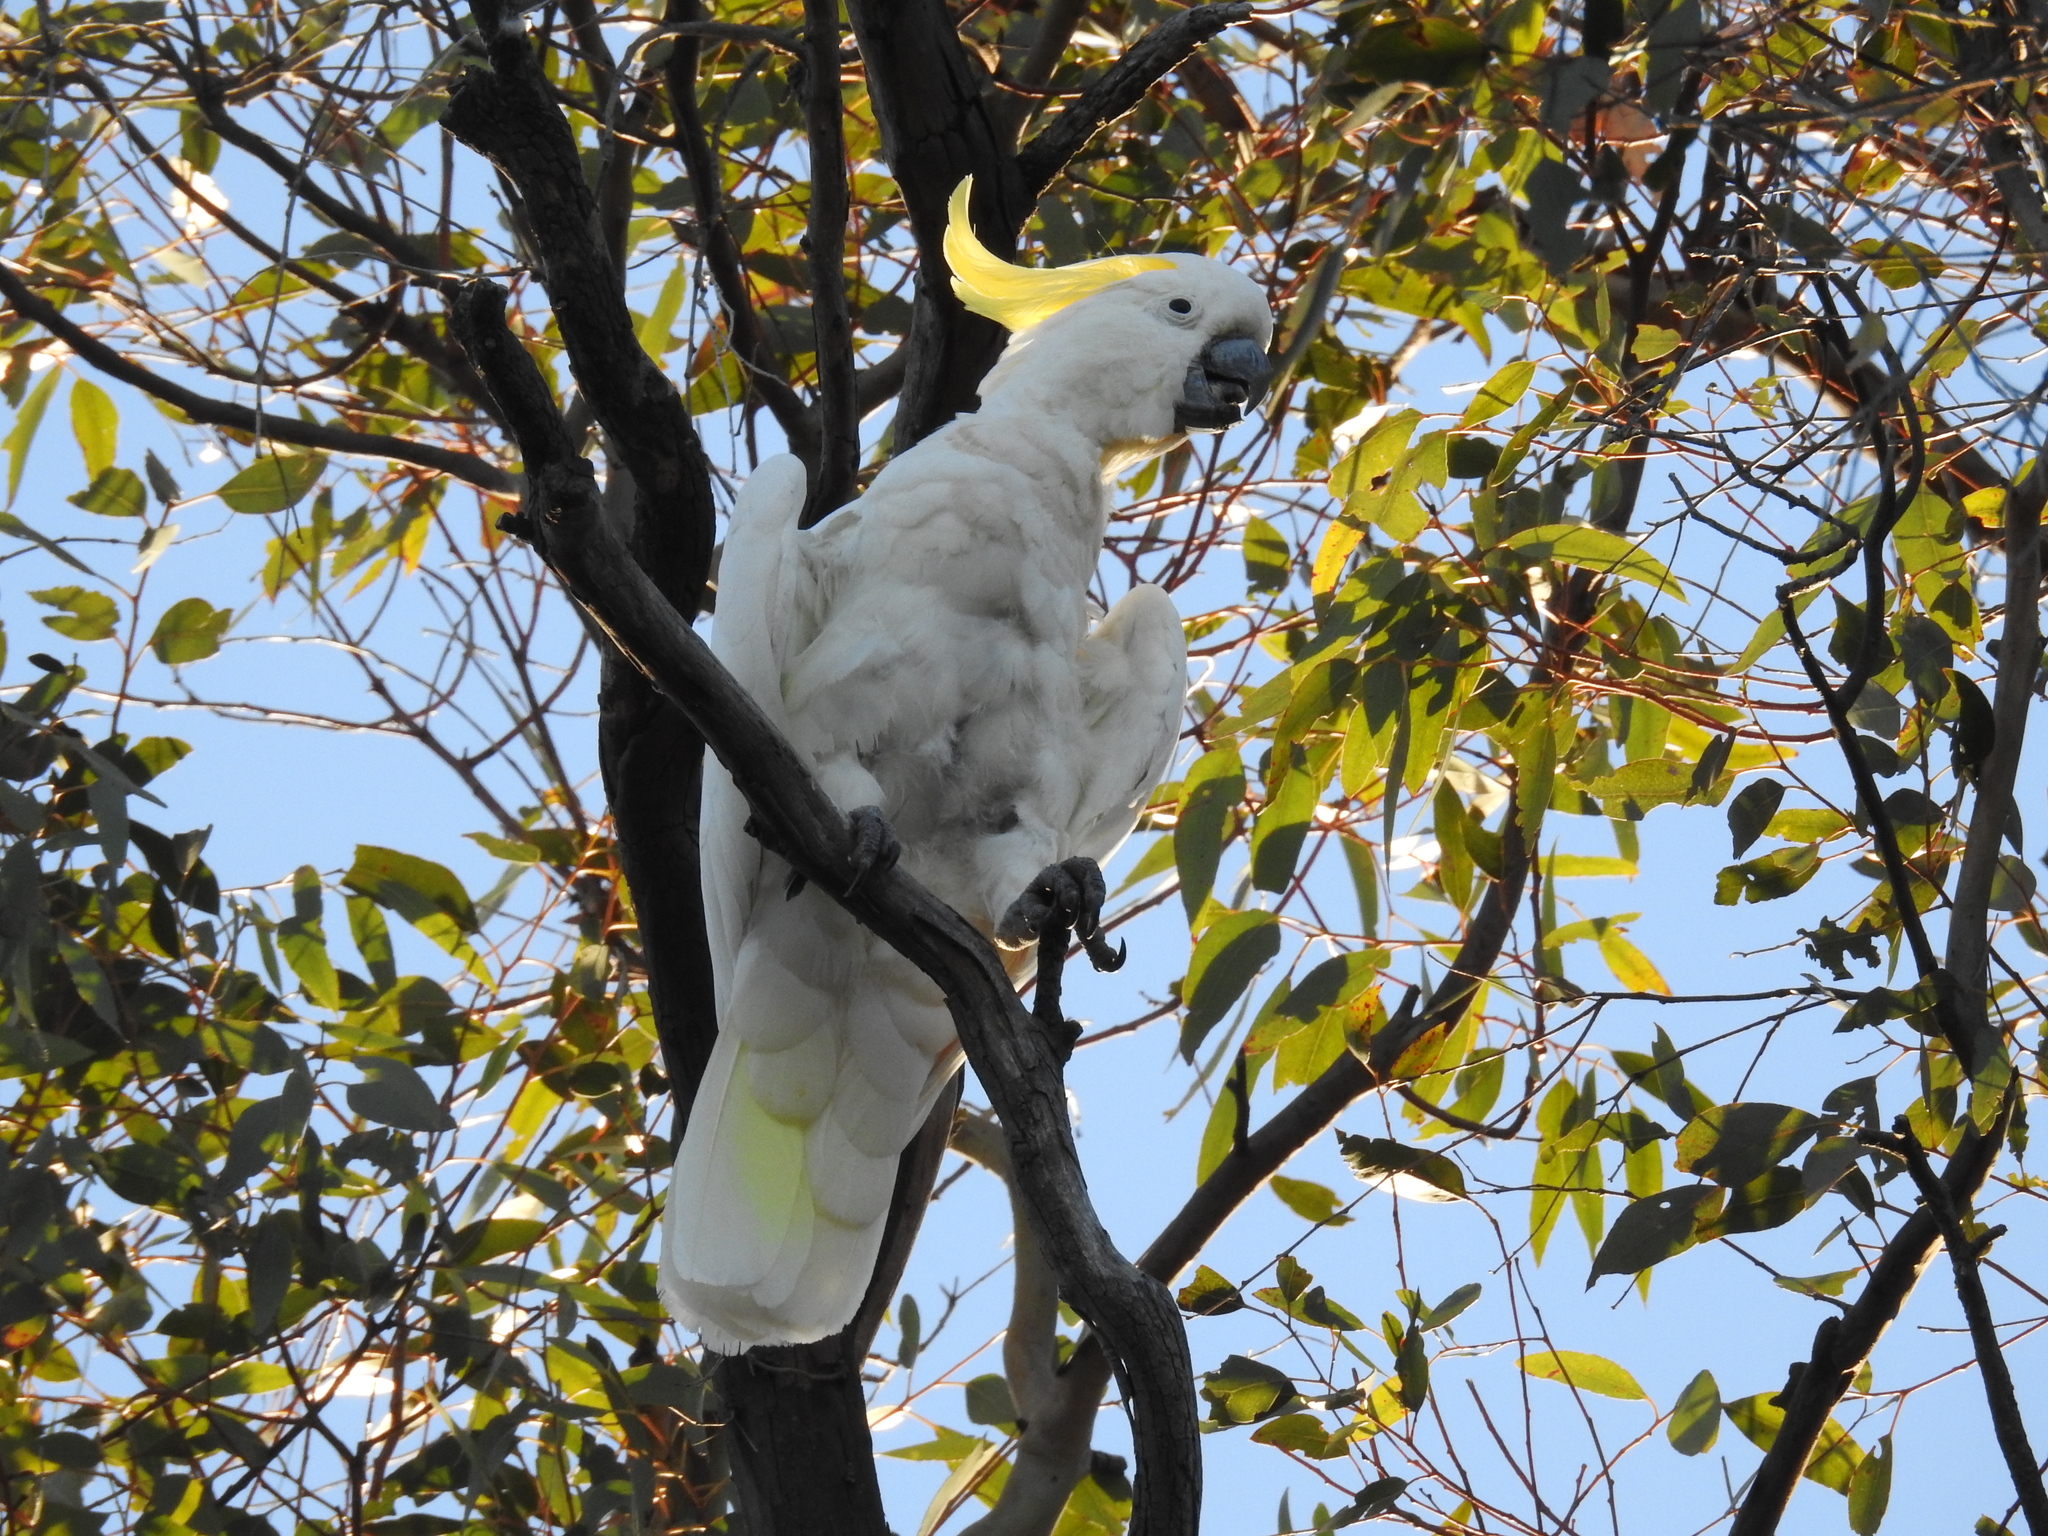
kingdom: Animalia
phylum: Chordata
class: Aves
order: Psittaciformes
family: Psittacidae
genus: Cacatua
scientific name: Cacatua galerita
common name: Sulphur-crested cockatoo
